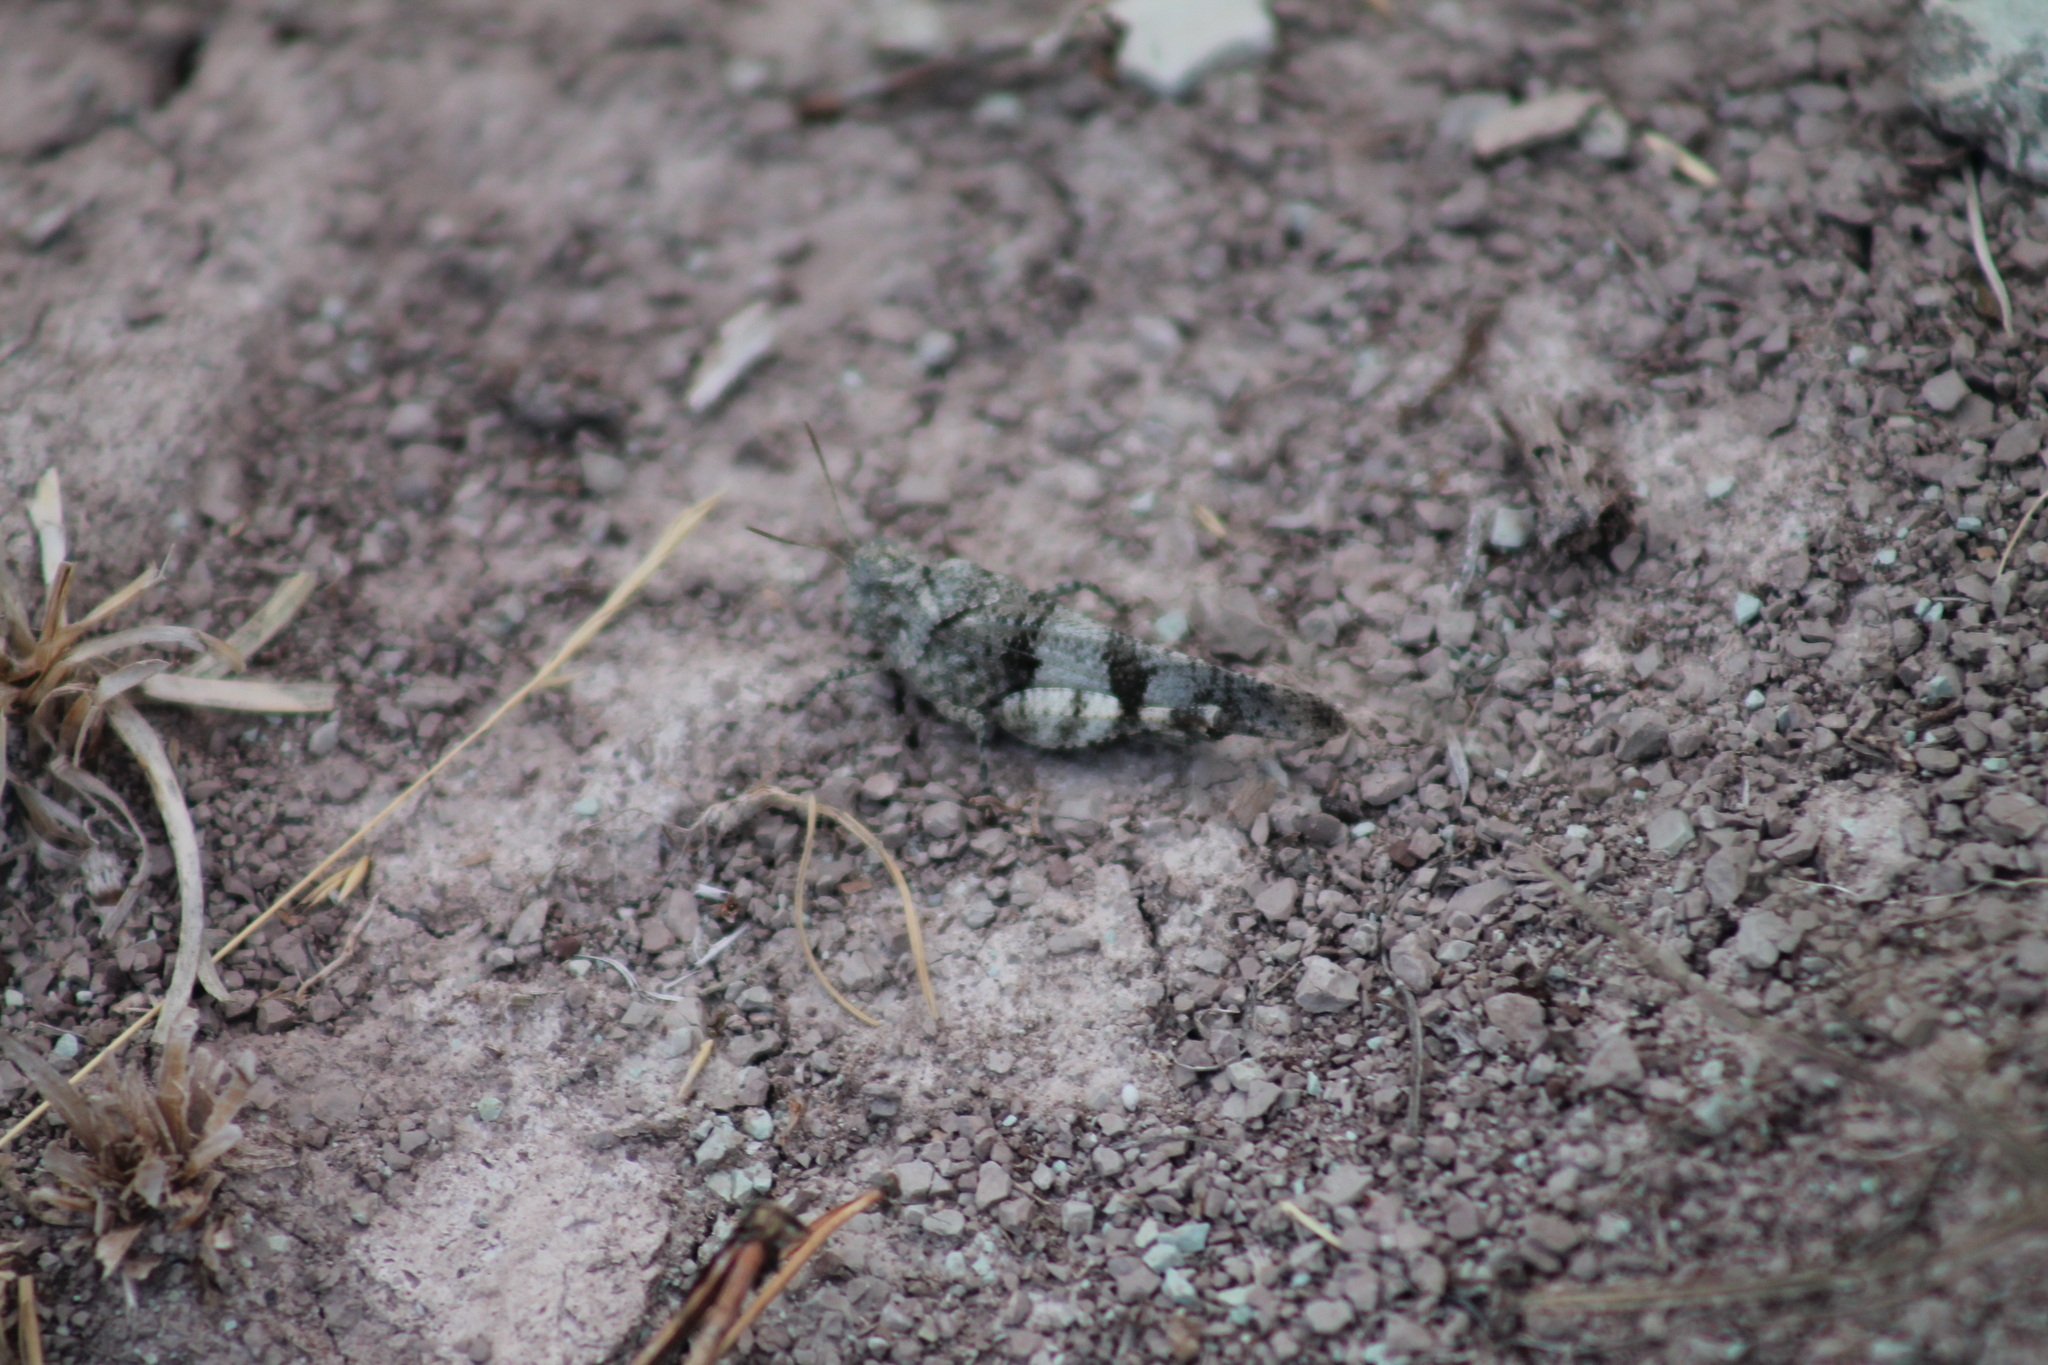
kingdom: Animalia
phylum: Arthropoda
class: Insecta
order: Orthoptera
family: Acrididae
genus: Oedipoda
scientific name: Oedipoda caerulescens
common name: Blue-winged grasshopper
